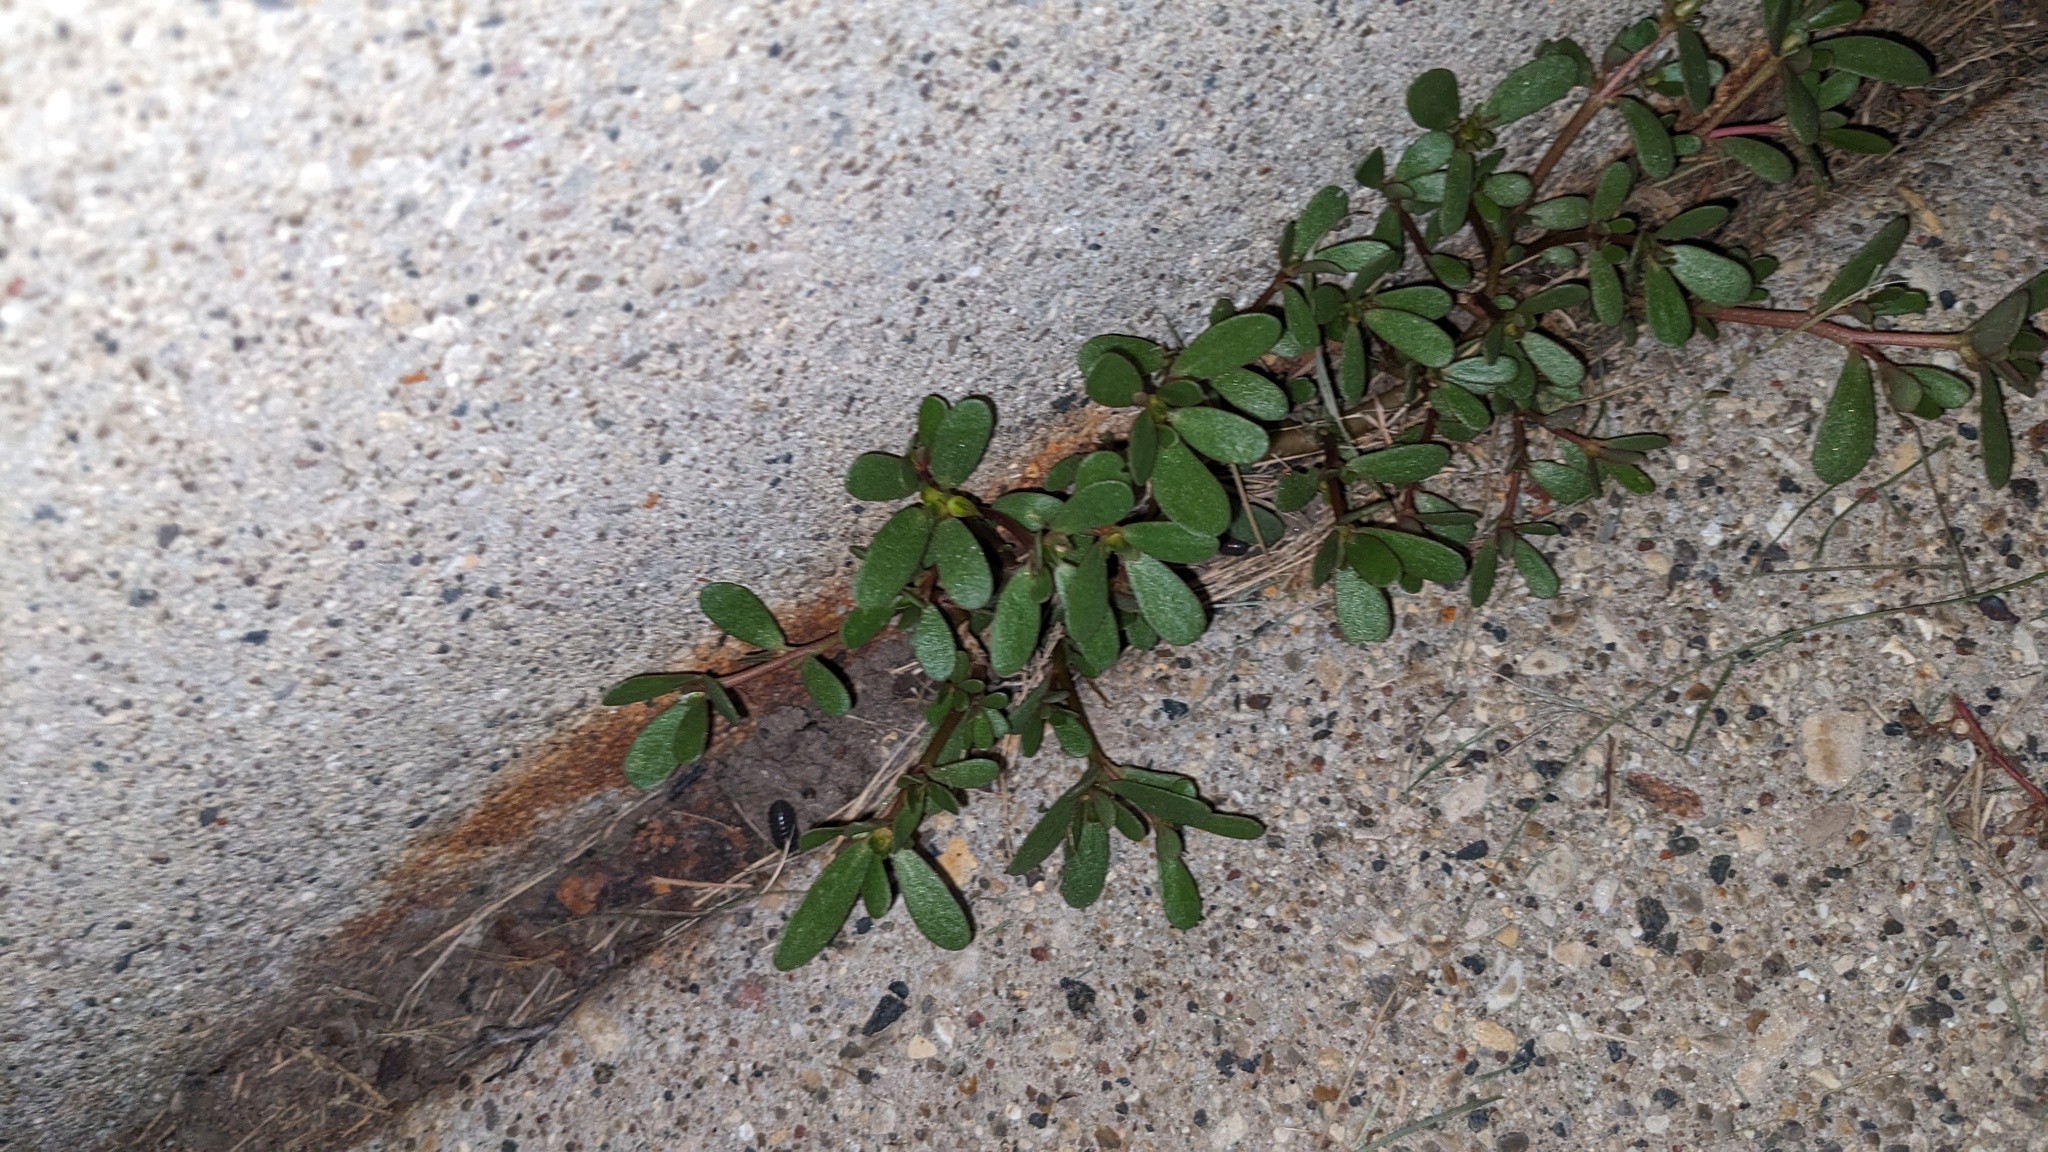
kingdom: Plantae
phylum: Tracheophyta
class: Magnoliopsida
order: Caryophyllales
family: Portulacaceae
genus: Portulaca
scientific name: Portulaca oleracea
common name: Common purslane
